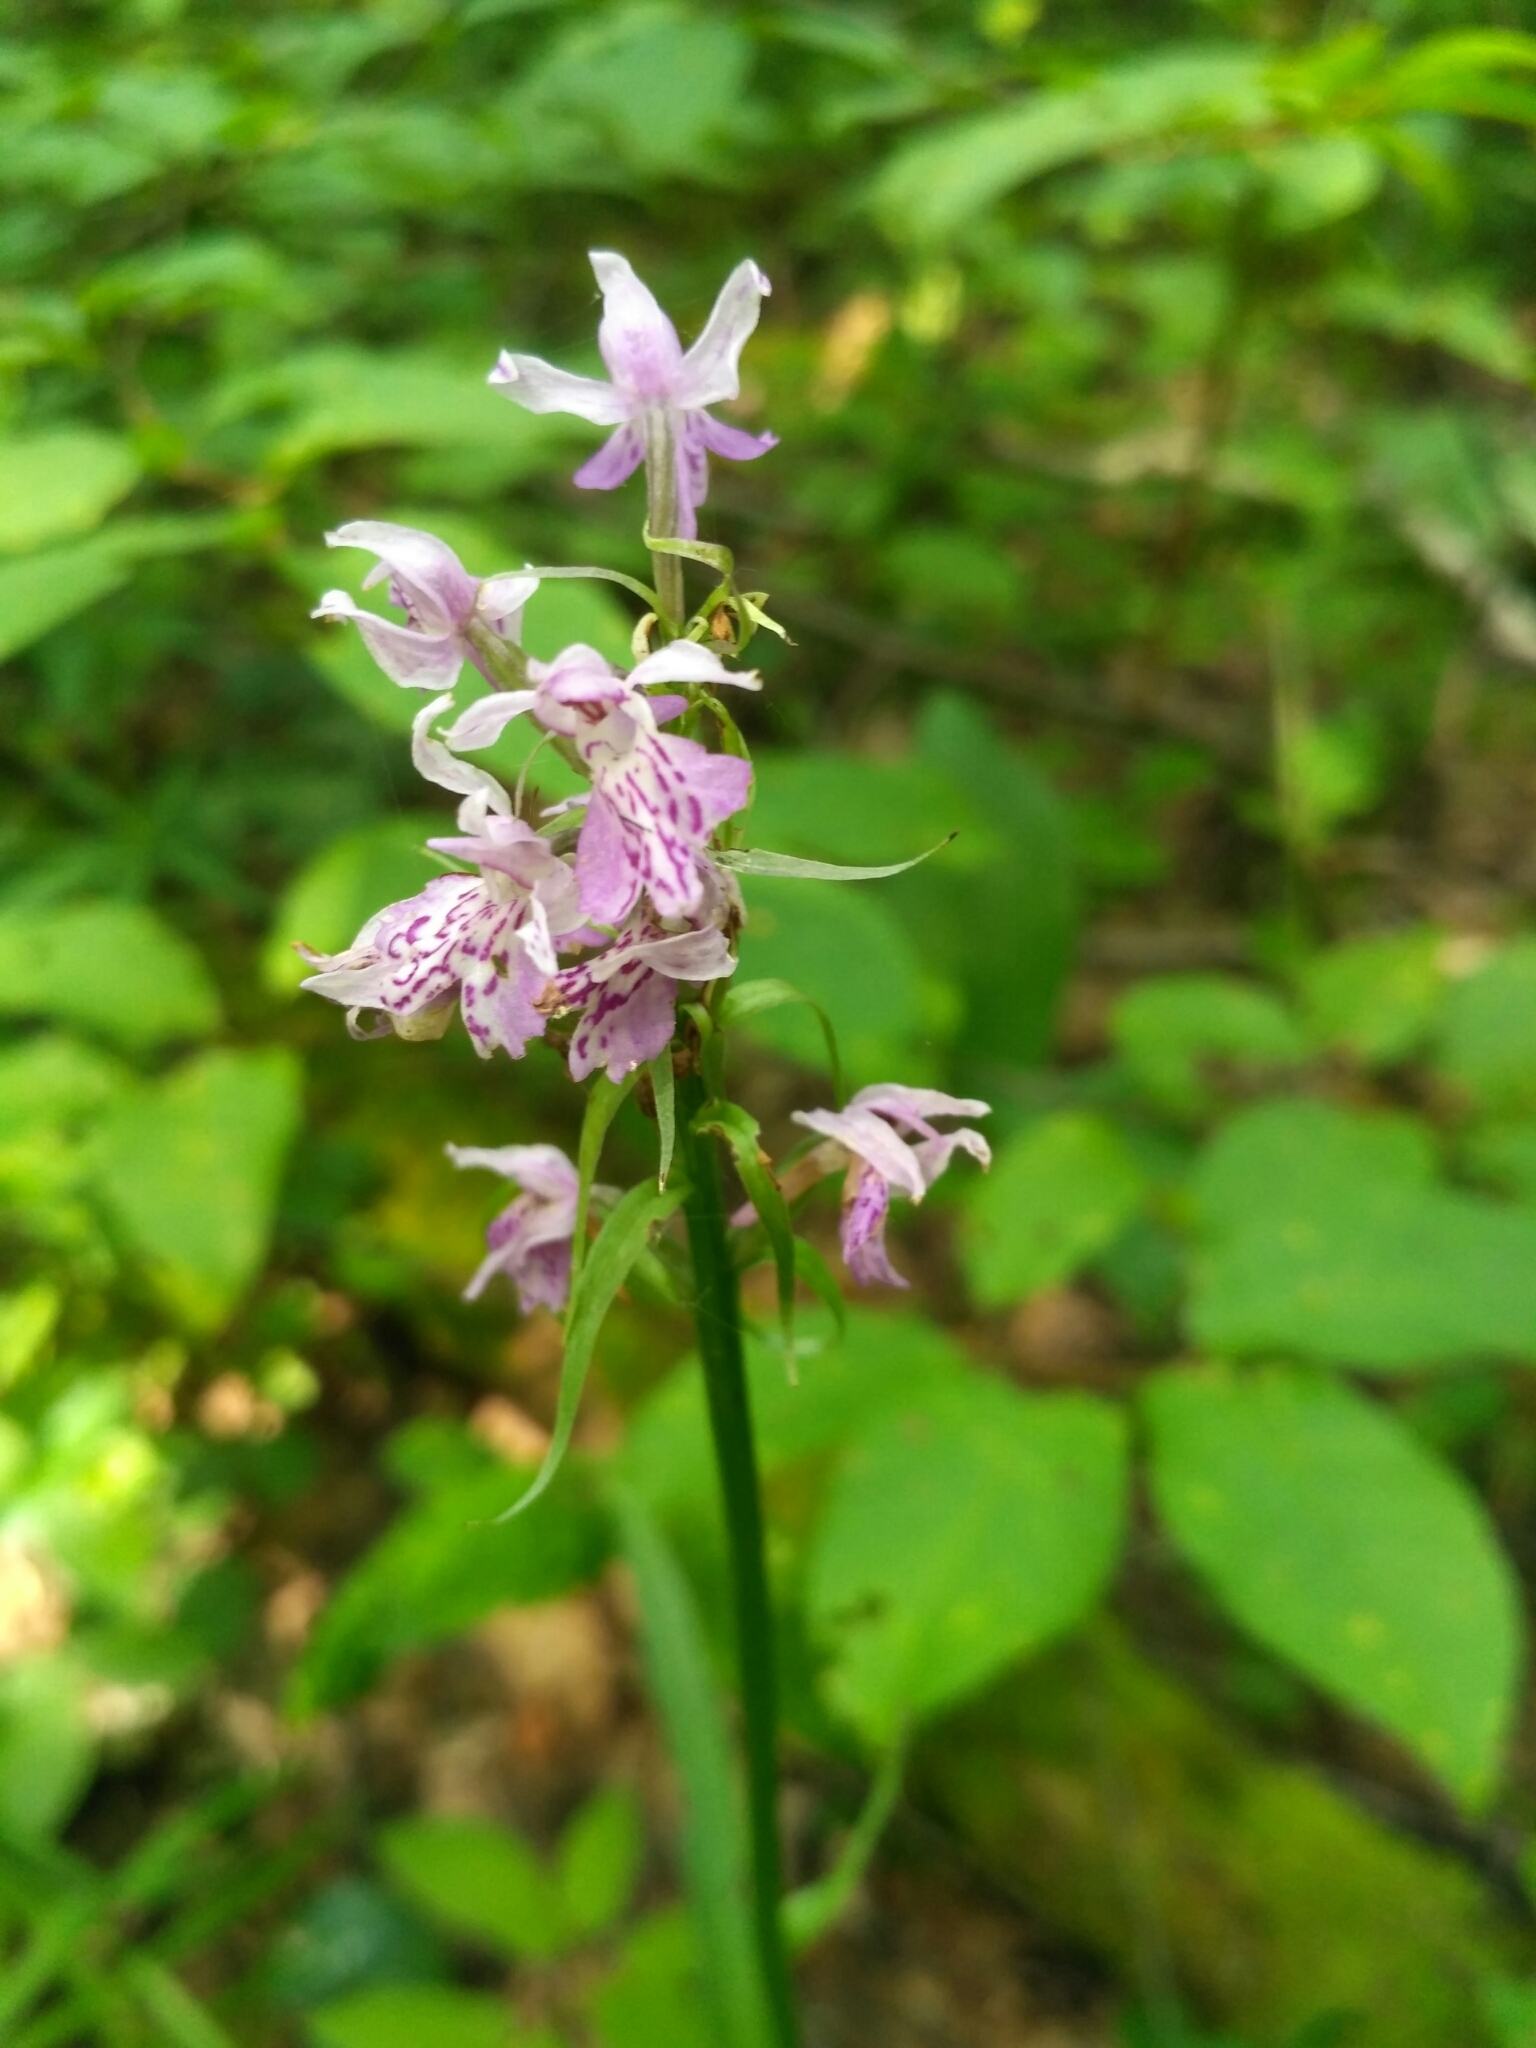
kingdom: Plantae
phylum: Tracheophyta
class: Liliopsida
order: Asparagales
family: Orchidaceae
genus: Dactylorhiza
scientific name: Dactylorhiza maculata
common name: Heath spotted-orchid
